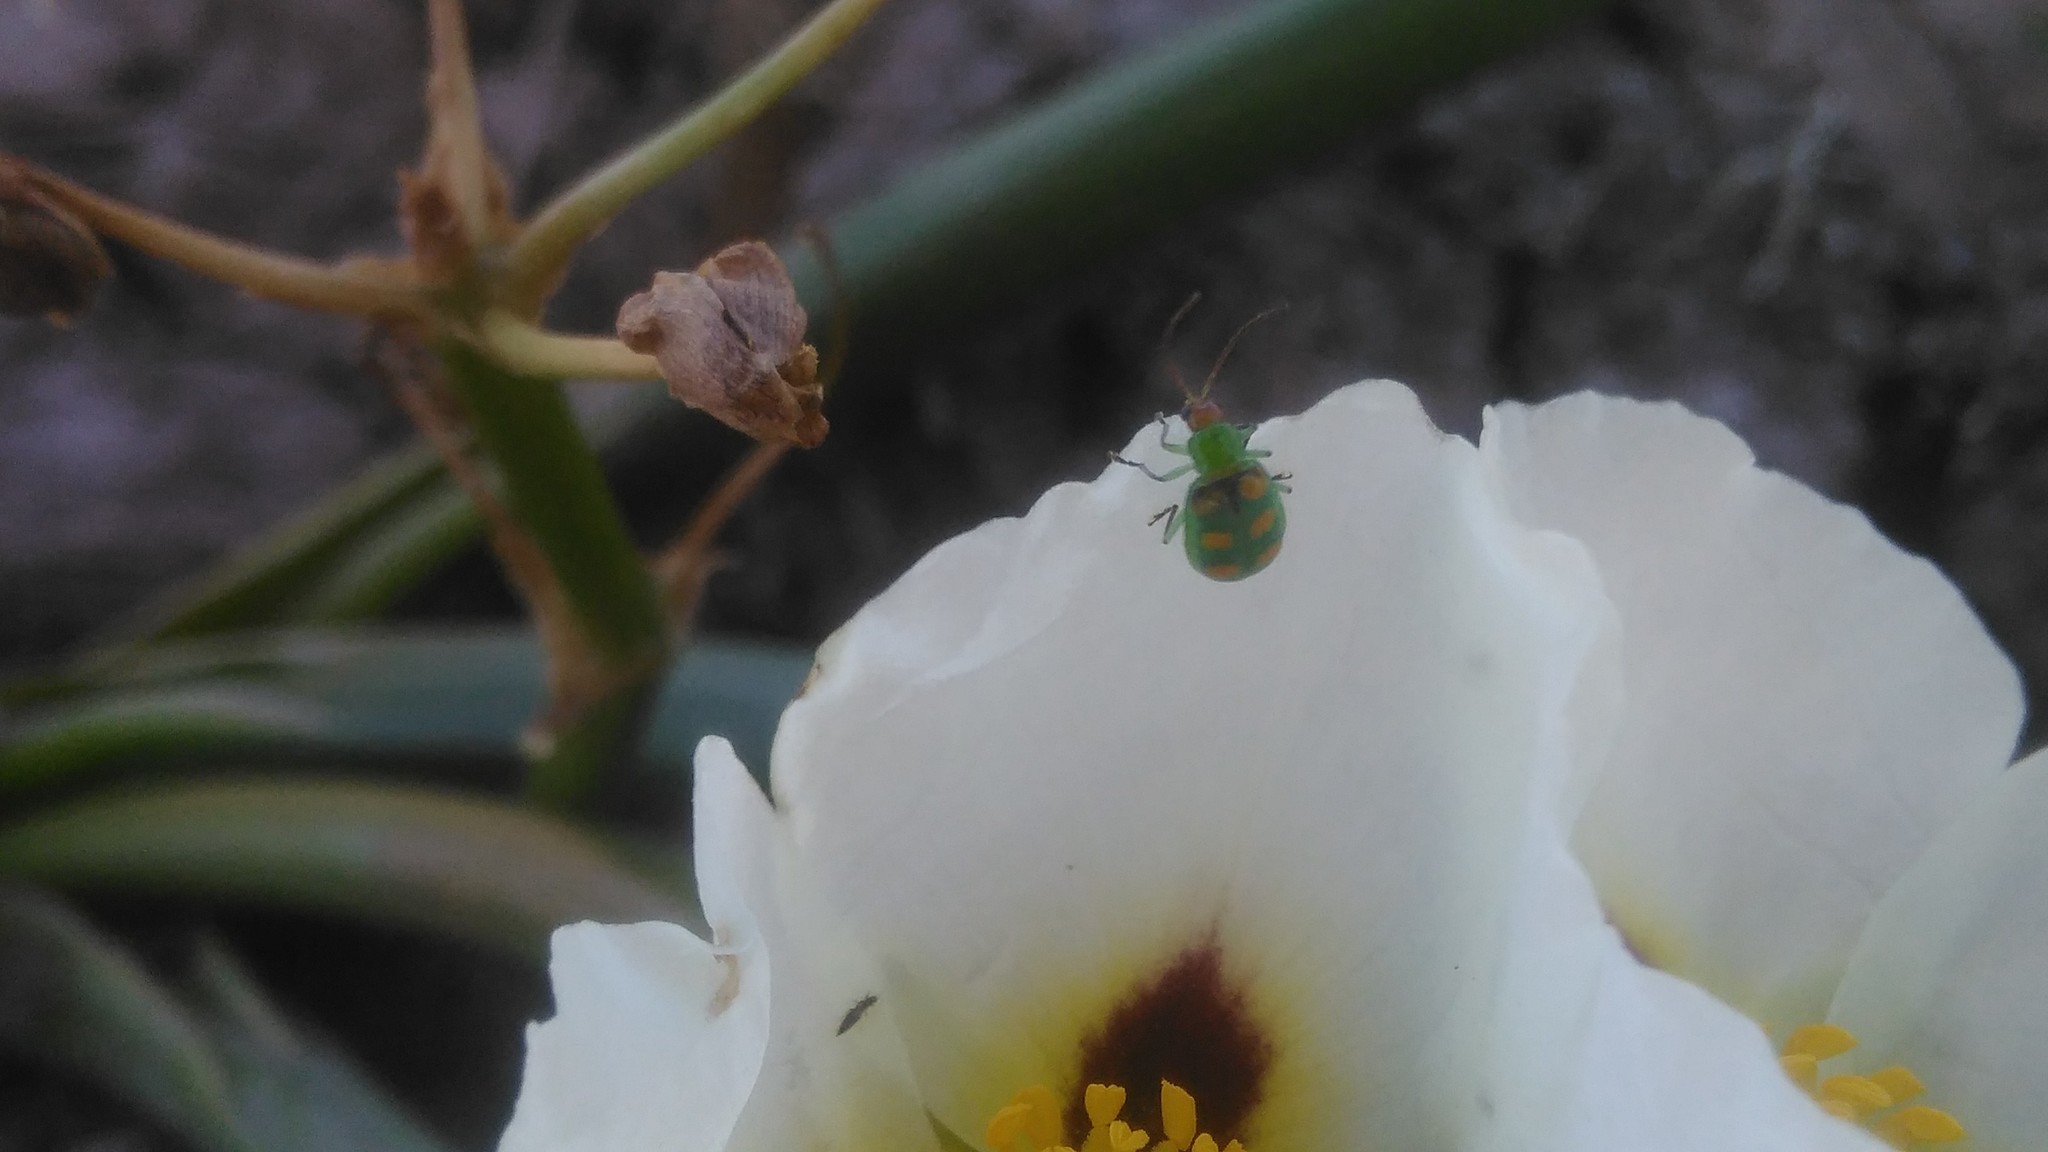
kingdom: Animalia
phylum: Arthropoda
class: Insecta
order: Coleoptera
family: Chrysomelidae
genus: Diabrotica
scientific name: Diabrotica speciosa
